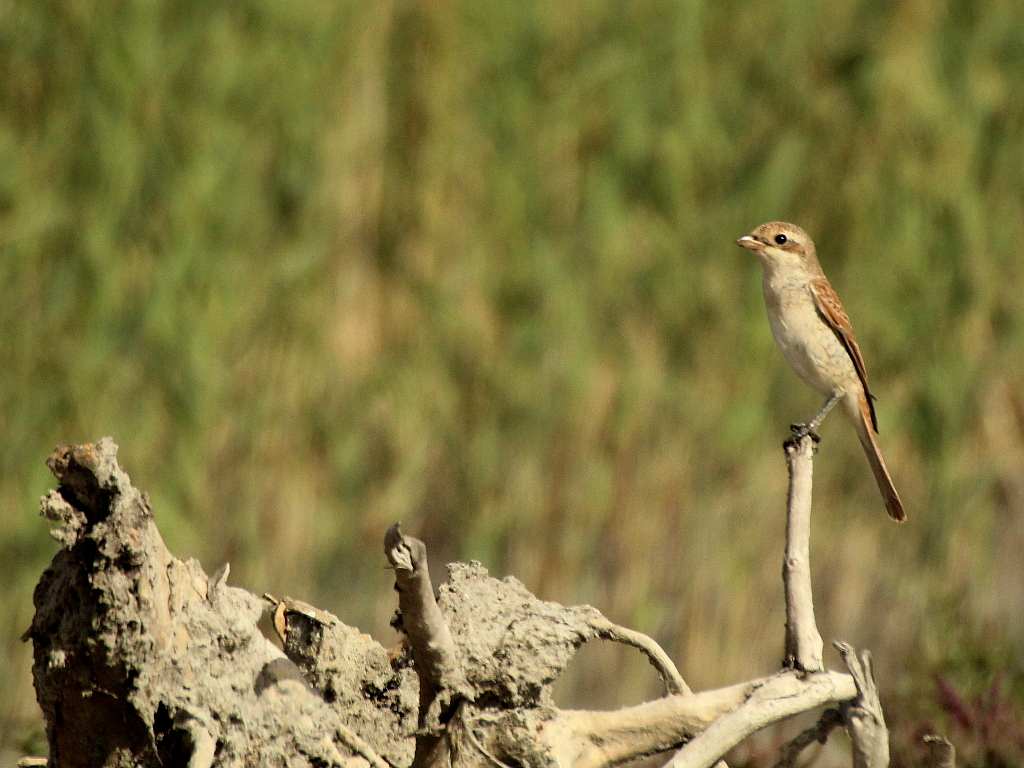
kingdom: Animalia
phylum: Chordata
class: Aves
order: Passeriformes
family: Laniidae
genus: Lanius
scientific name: Lanius collurio
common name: Red-backed shrike
